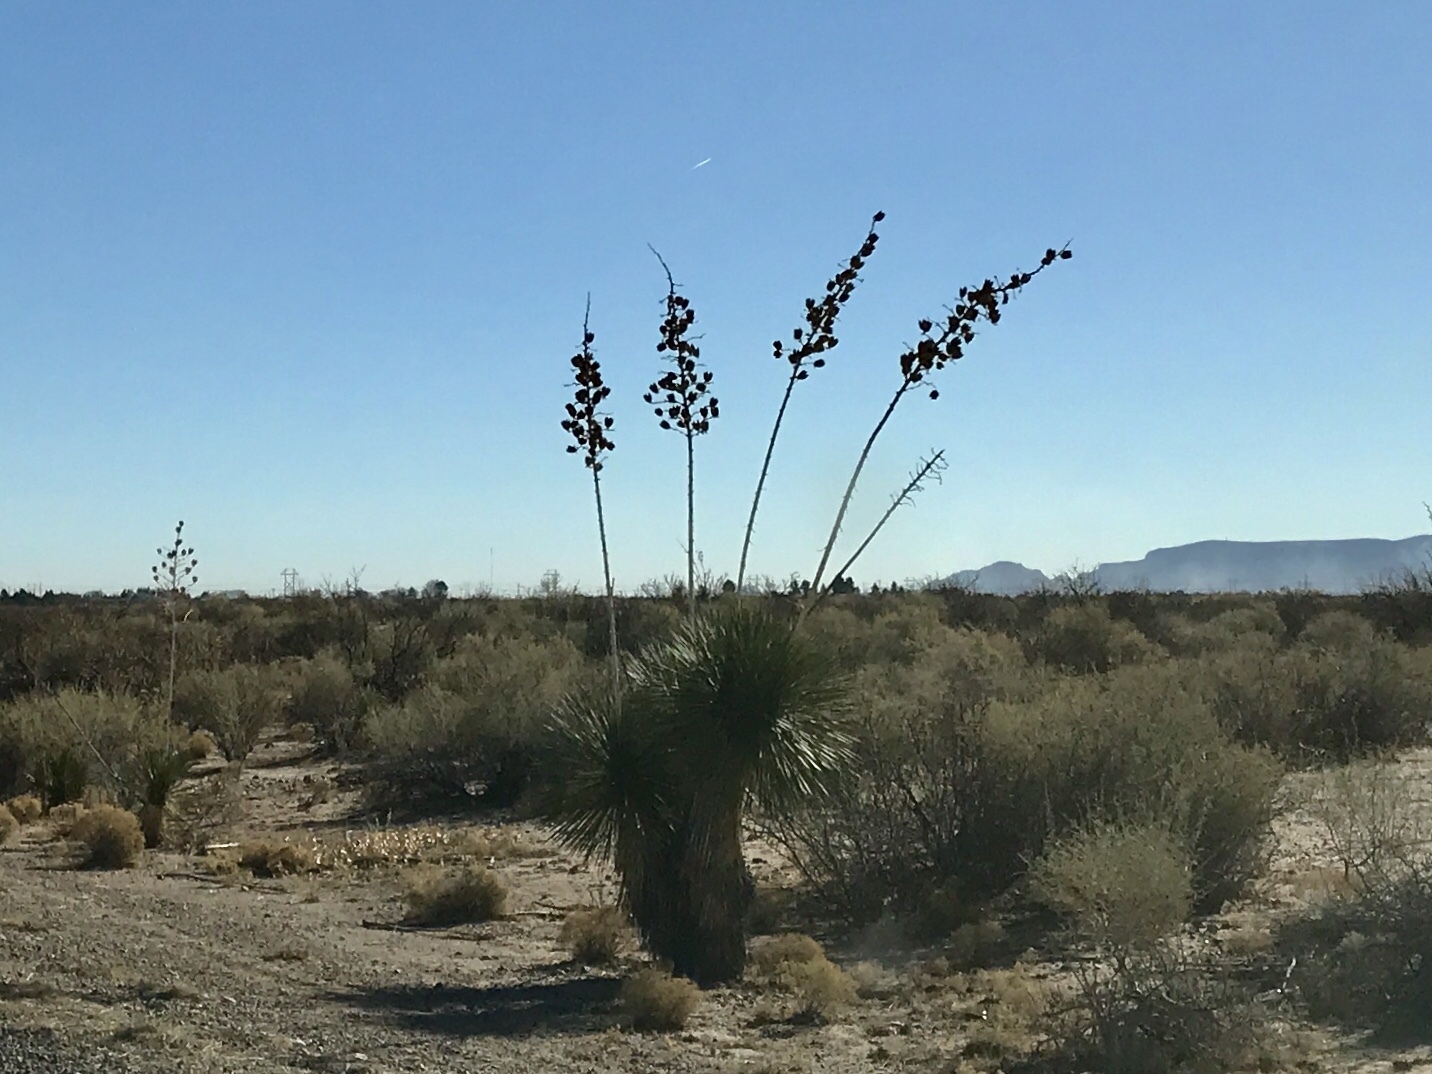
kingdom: Plantae
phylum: Tracheophyta
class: Liliopsida
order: Asparagales
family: Asparagaceae
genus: Yucca
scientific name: Yucca elata
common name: Palmella
